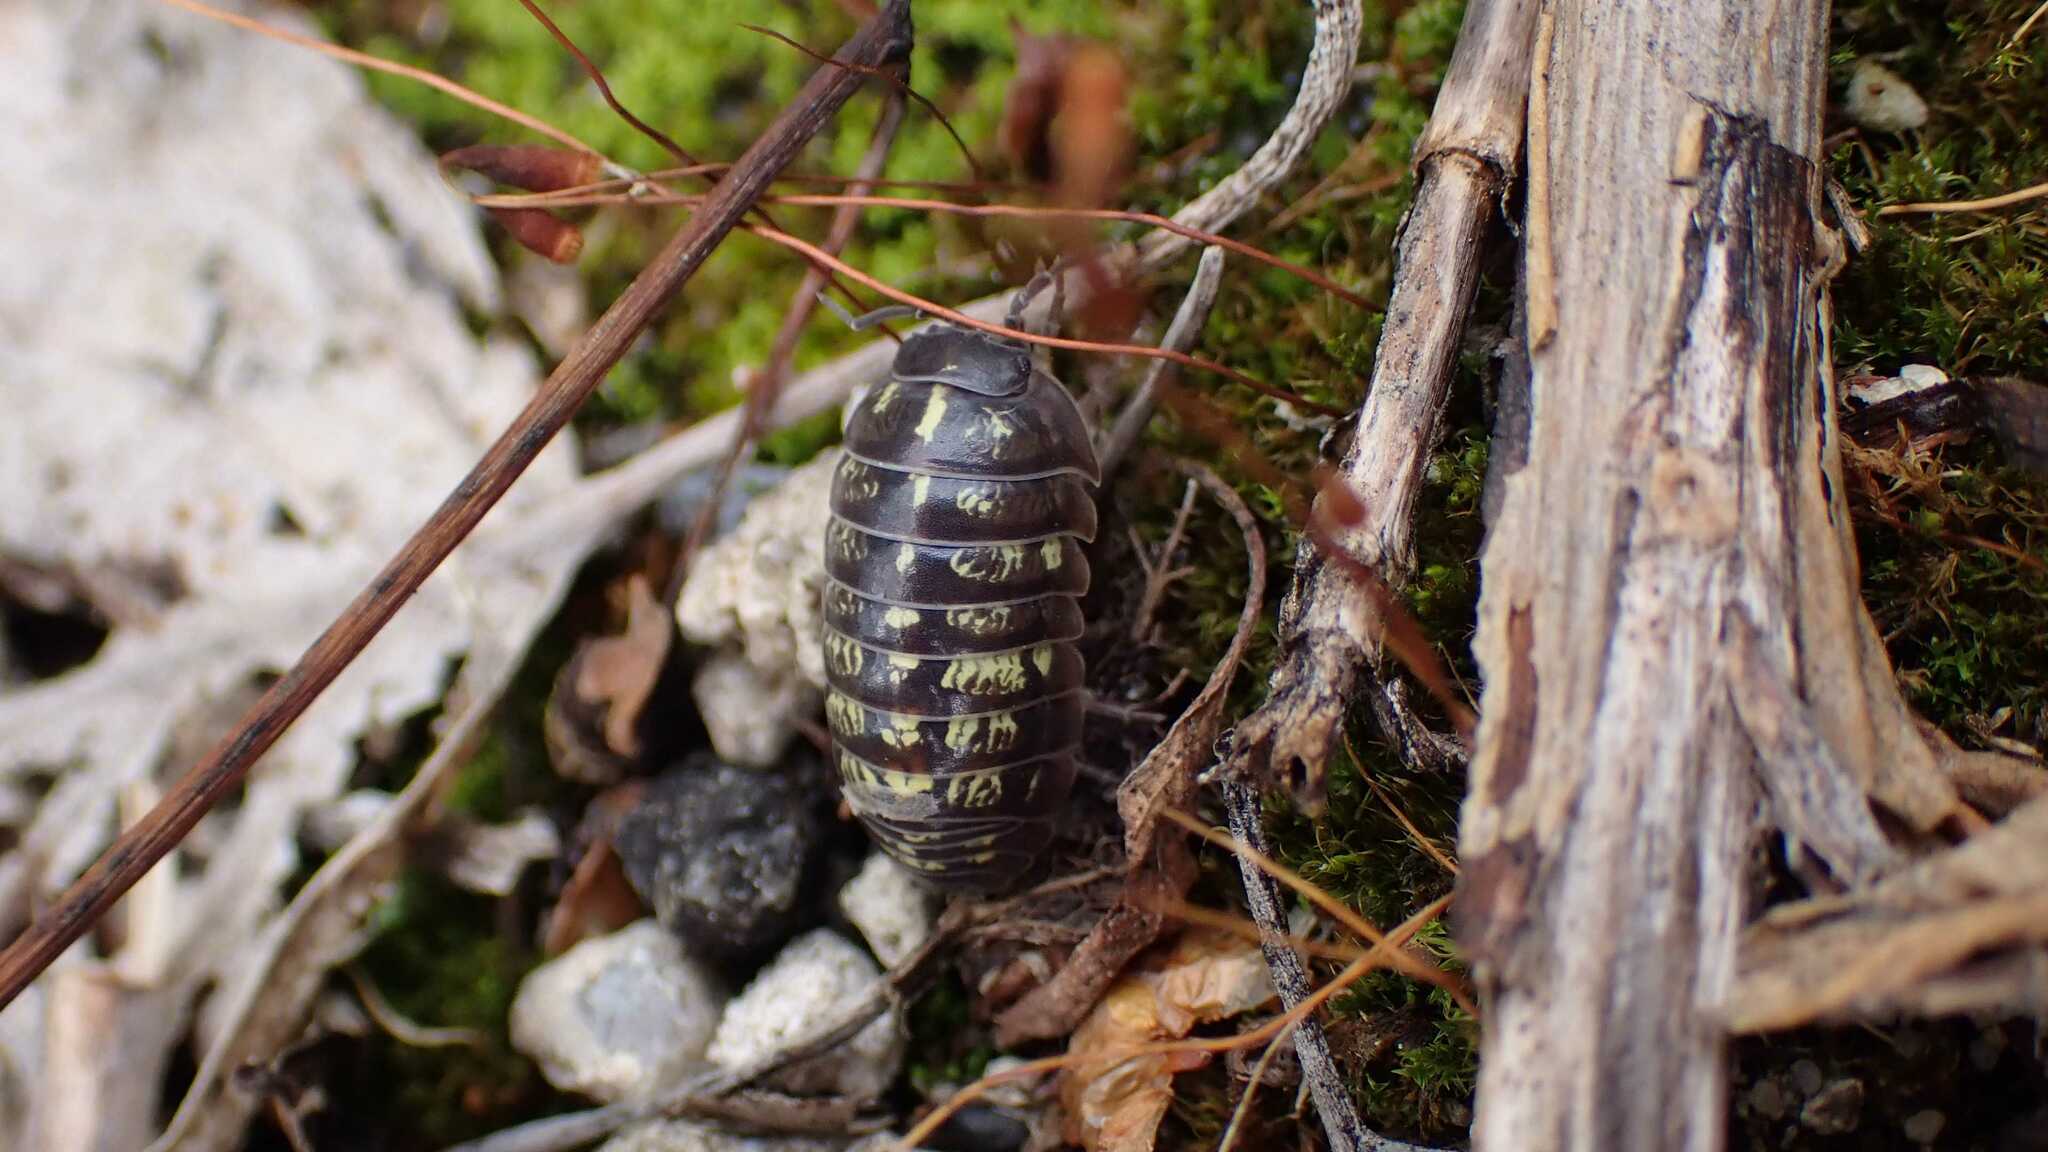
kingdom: Animalia
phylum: Arthropoda
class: Malacostraca
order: Isopoda
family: Armadillidiidae
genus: Armadillidium
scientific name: Armadillidium vulgare
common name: Common pill woodlouse
